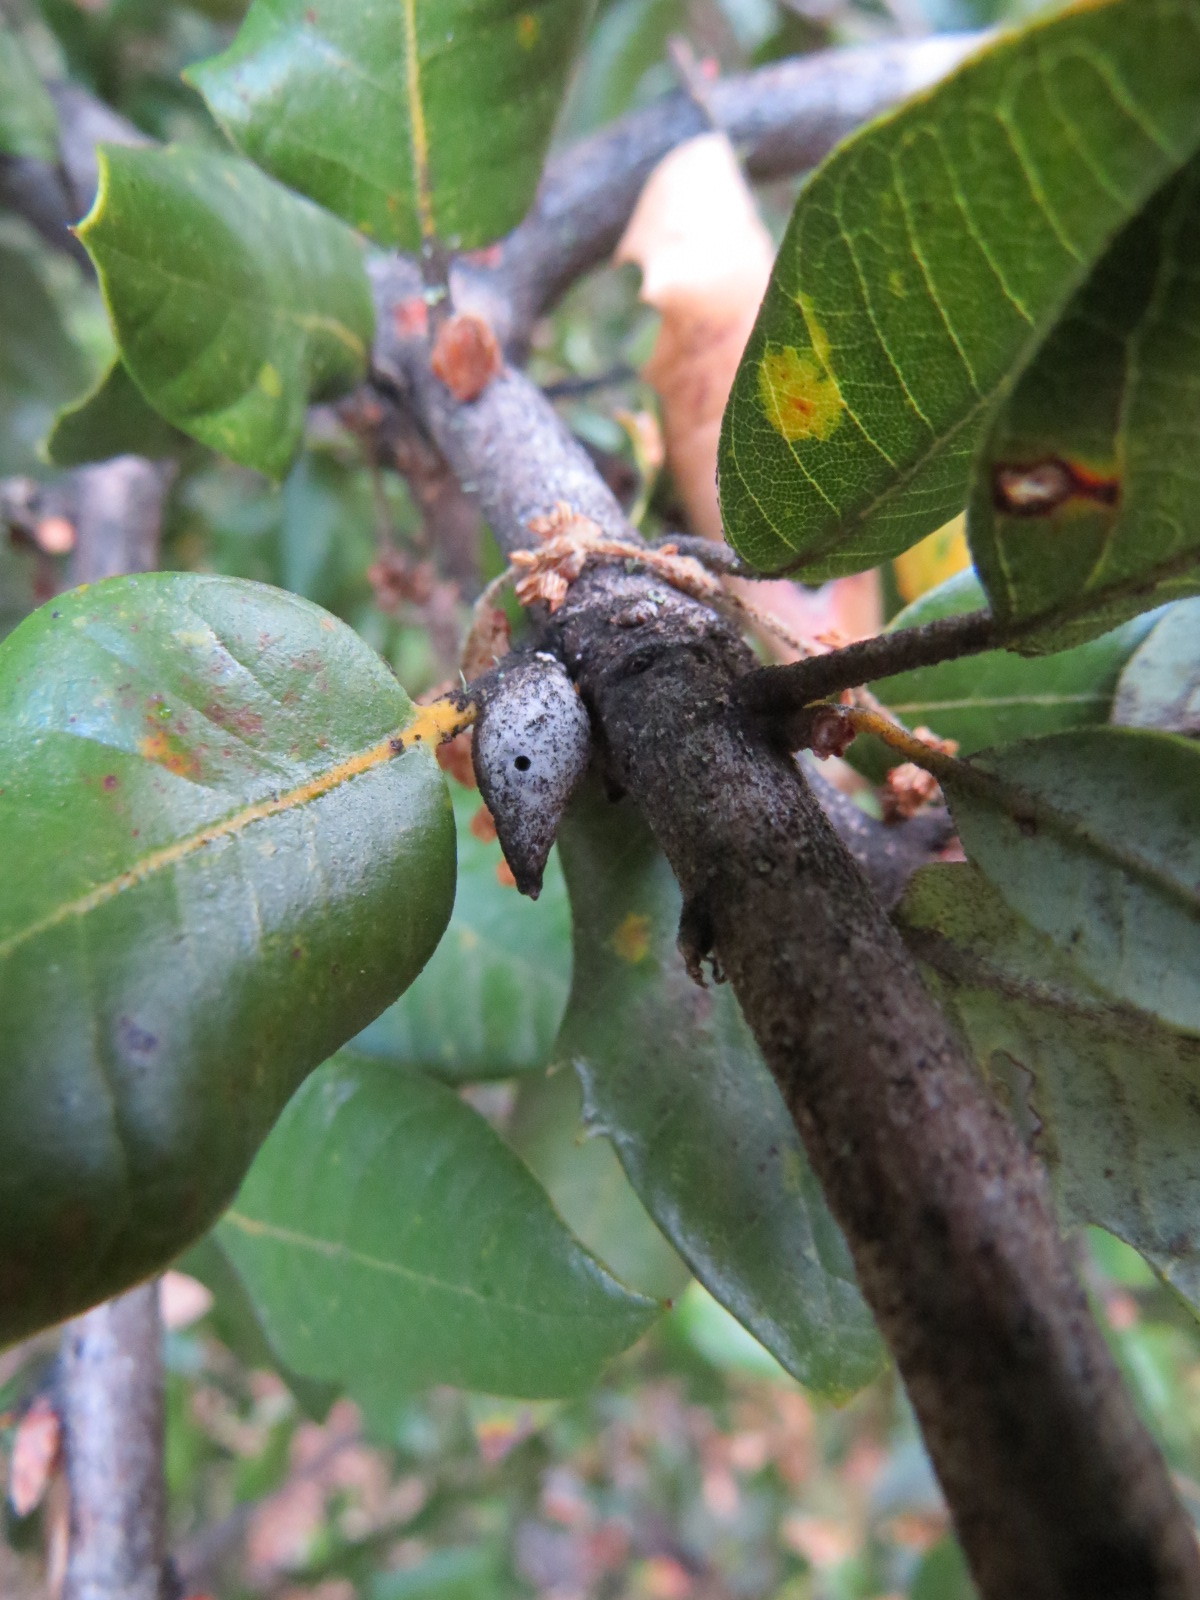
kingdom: Animalia
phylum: Arthropoda
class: Insecta
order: Hymenoptera
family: Cynipidae
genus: Heteroecus
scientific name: Heteroecus pacificus
